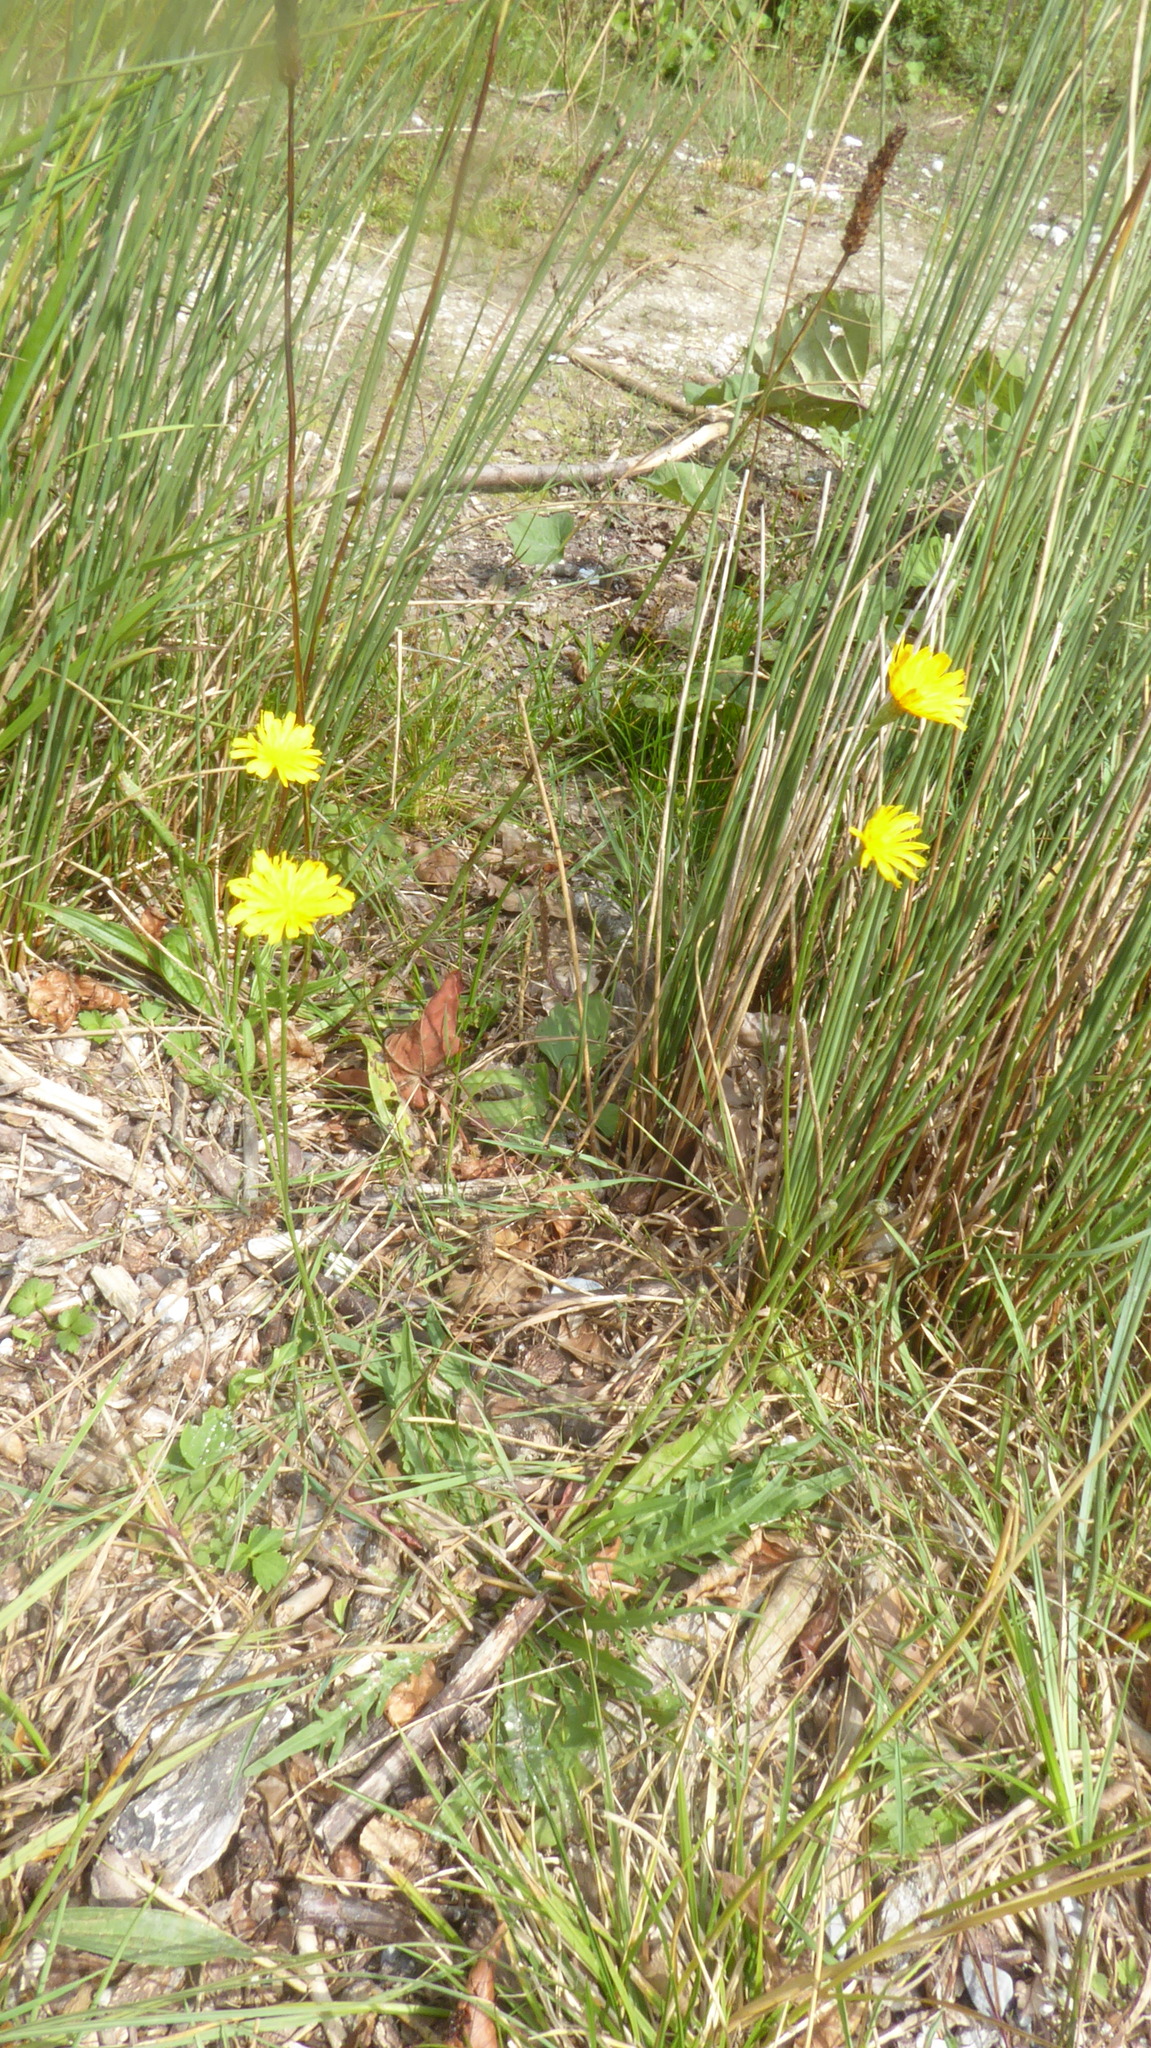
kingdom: Plantae
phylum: Tracheophyta
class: Magnoliopsida
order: Asterales
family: Asteraceae
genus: Leontodon
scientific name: Leontodon hispidus
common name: Rough hawkbit
